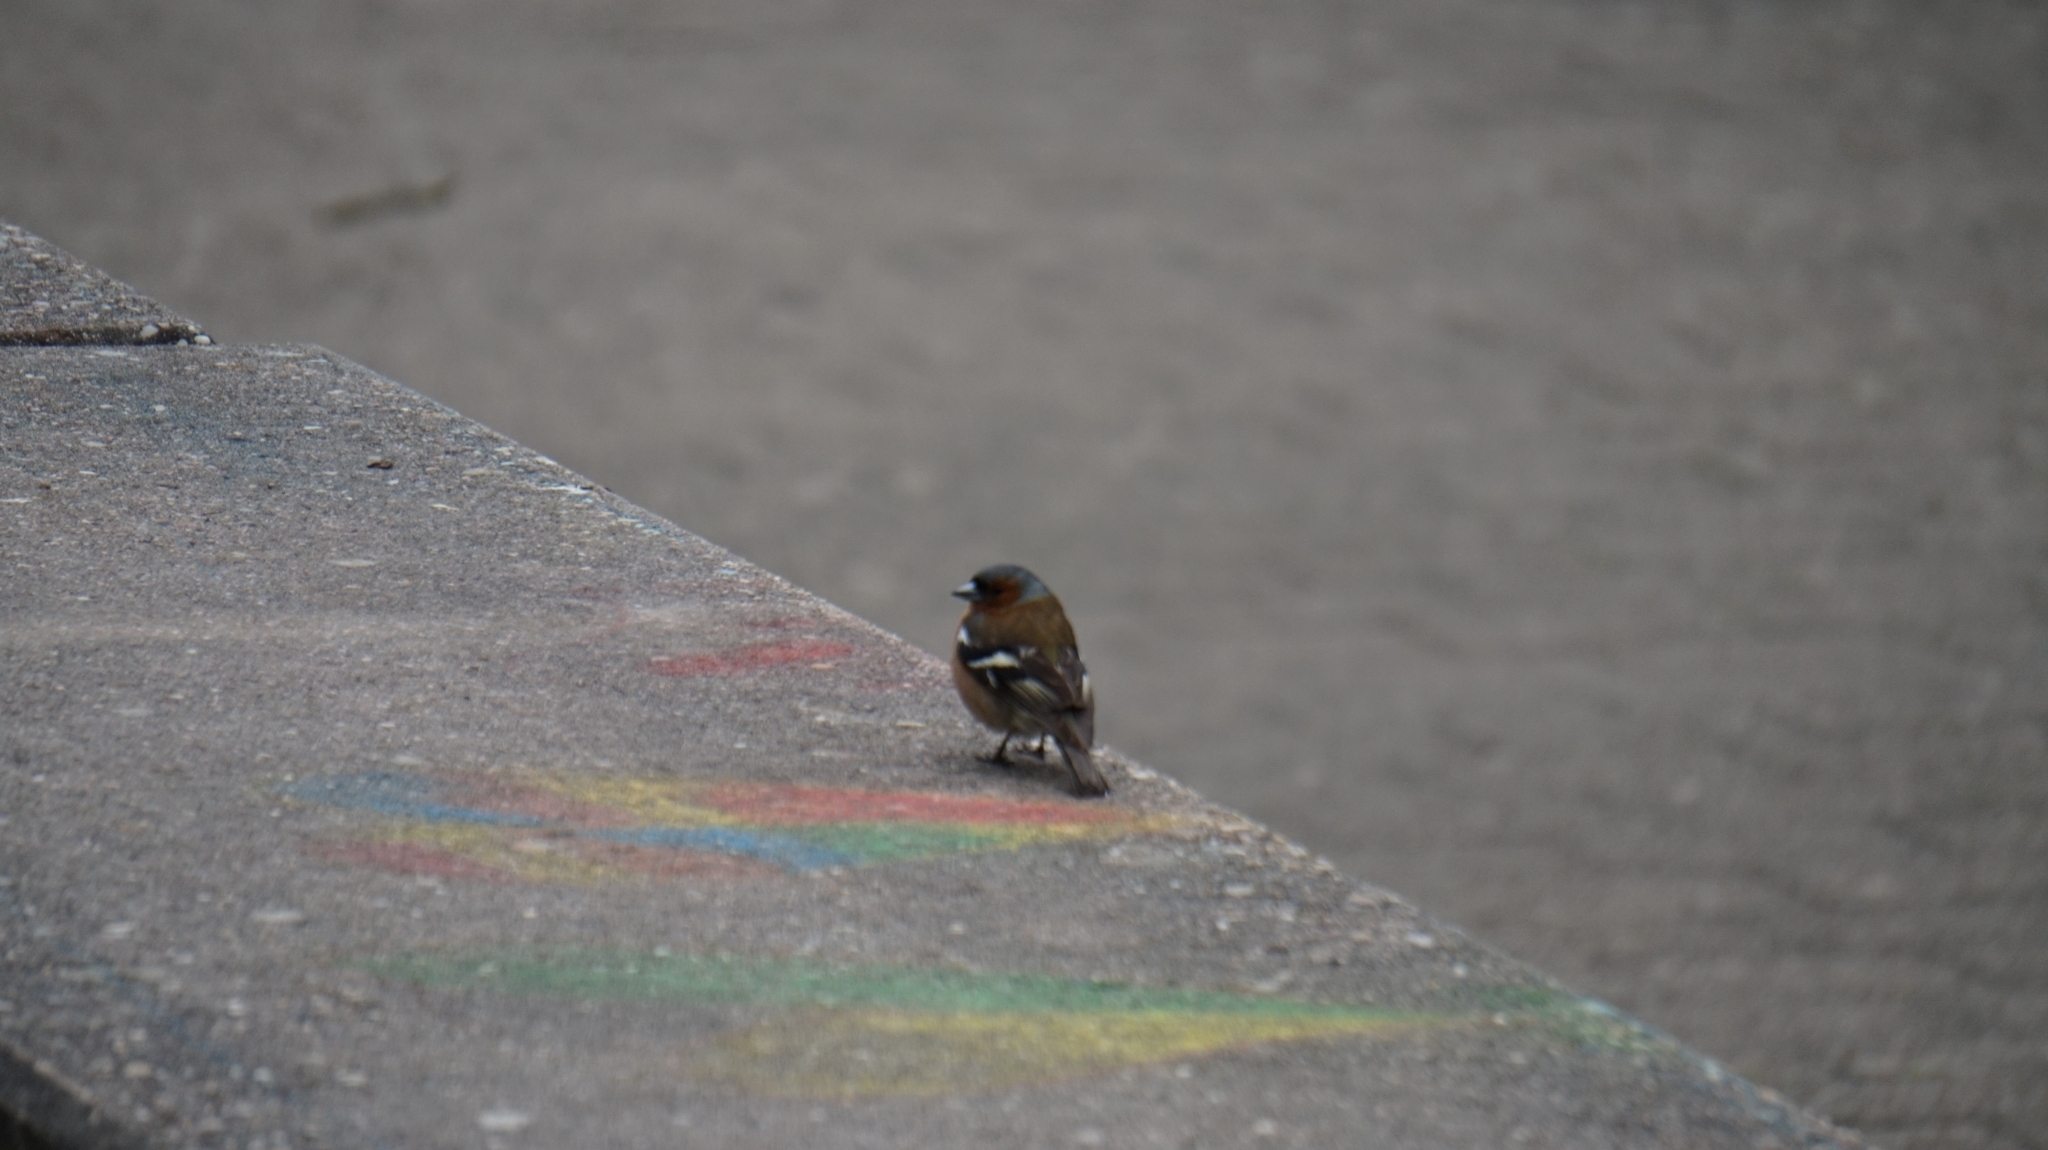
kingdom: Animalia
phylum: Chordata
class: Aves
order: Passeriformes
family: Fringillidae
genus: Fringilla
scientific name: Fringilla coelebs
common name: Common chaffinch
